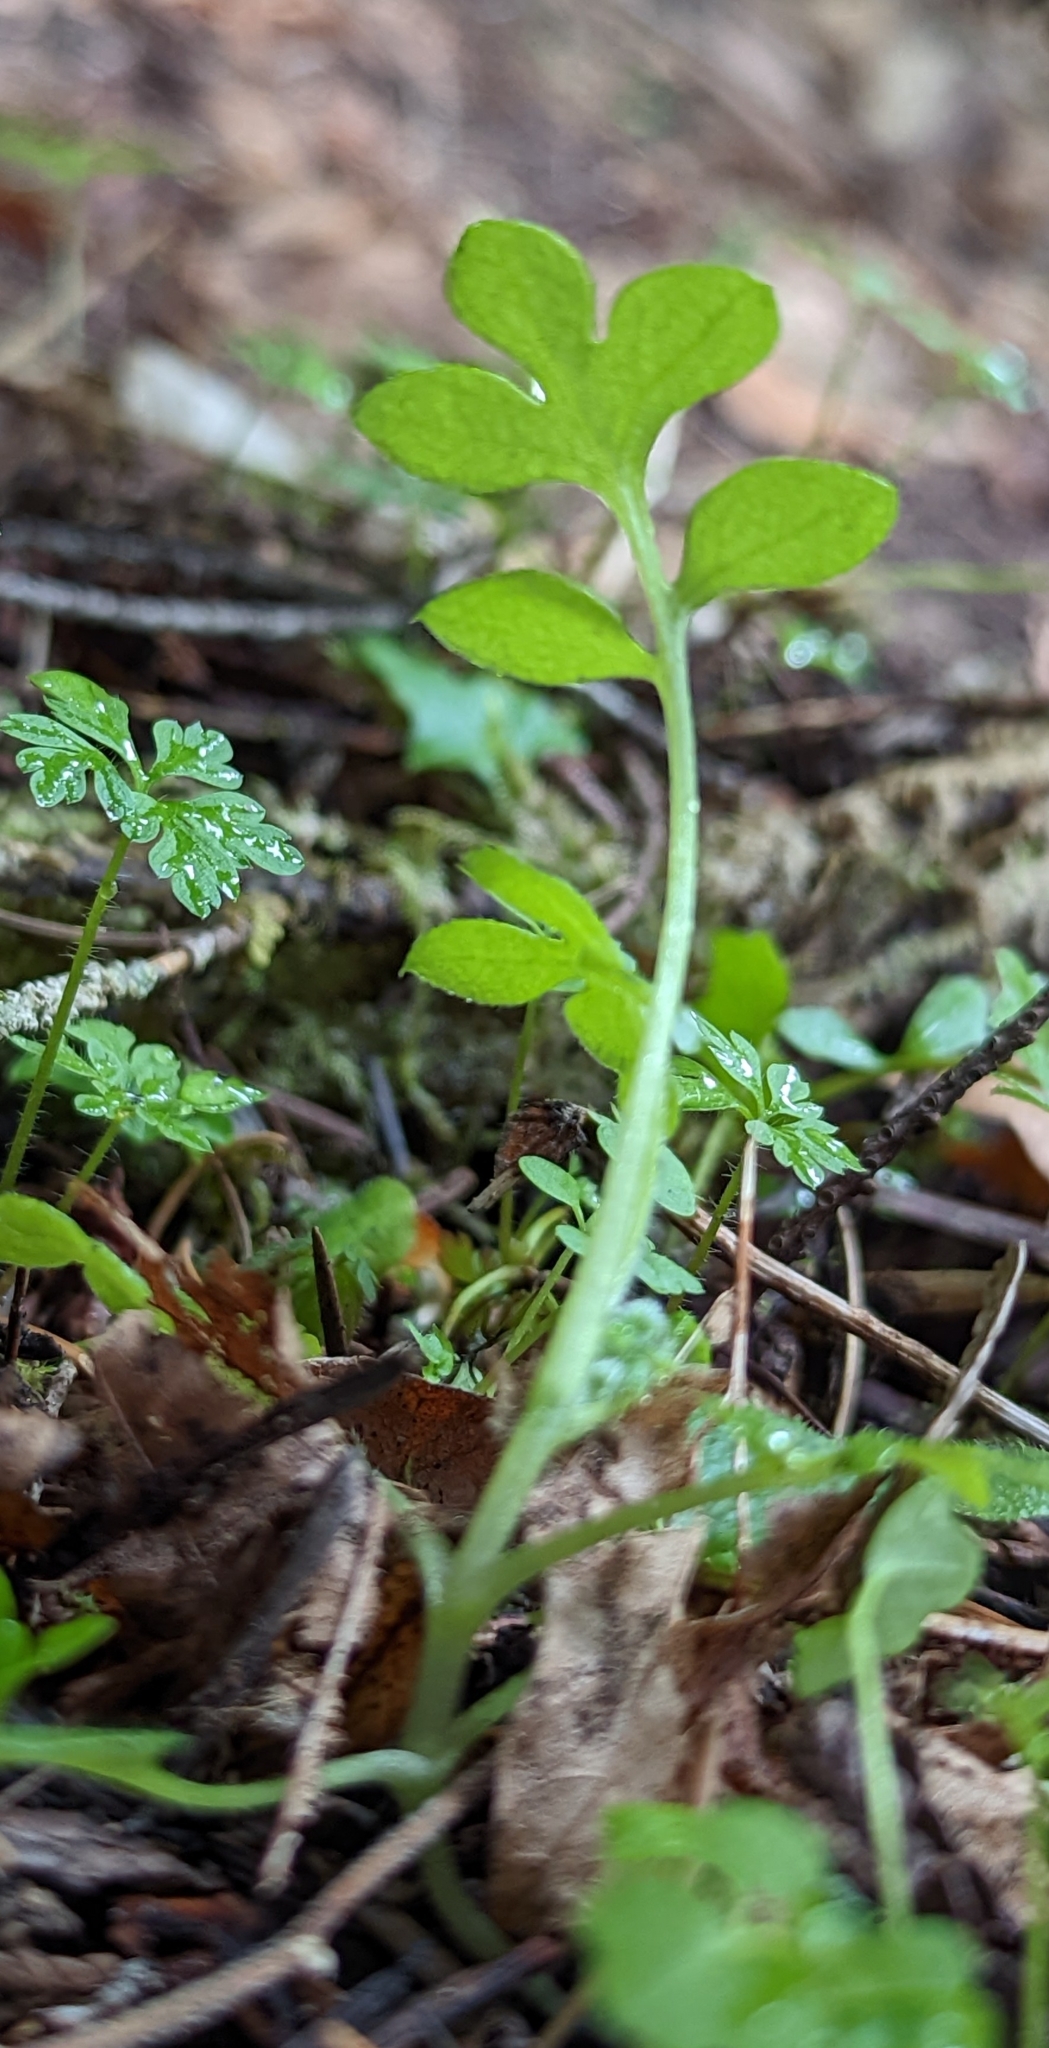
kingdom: Plantae
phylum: Tracheophyta
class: Magnoliopsida
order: Boraginales
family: Hydrophyllaceae
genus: Nemophila
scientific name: Nemophila parviflora
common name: Small-flowered baby-blue-eyes
